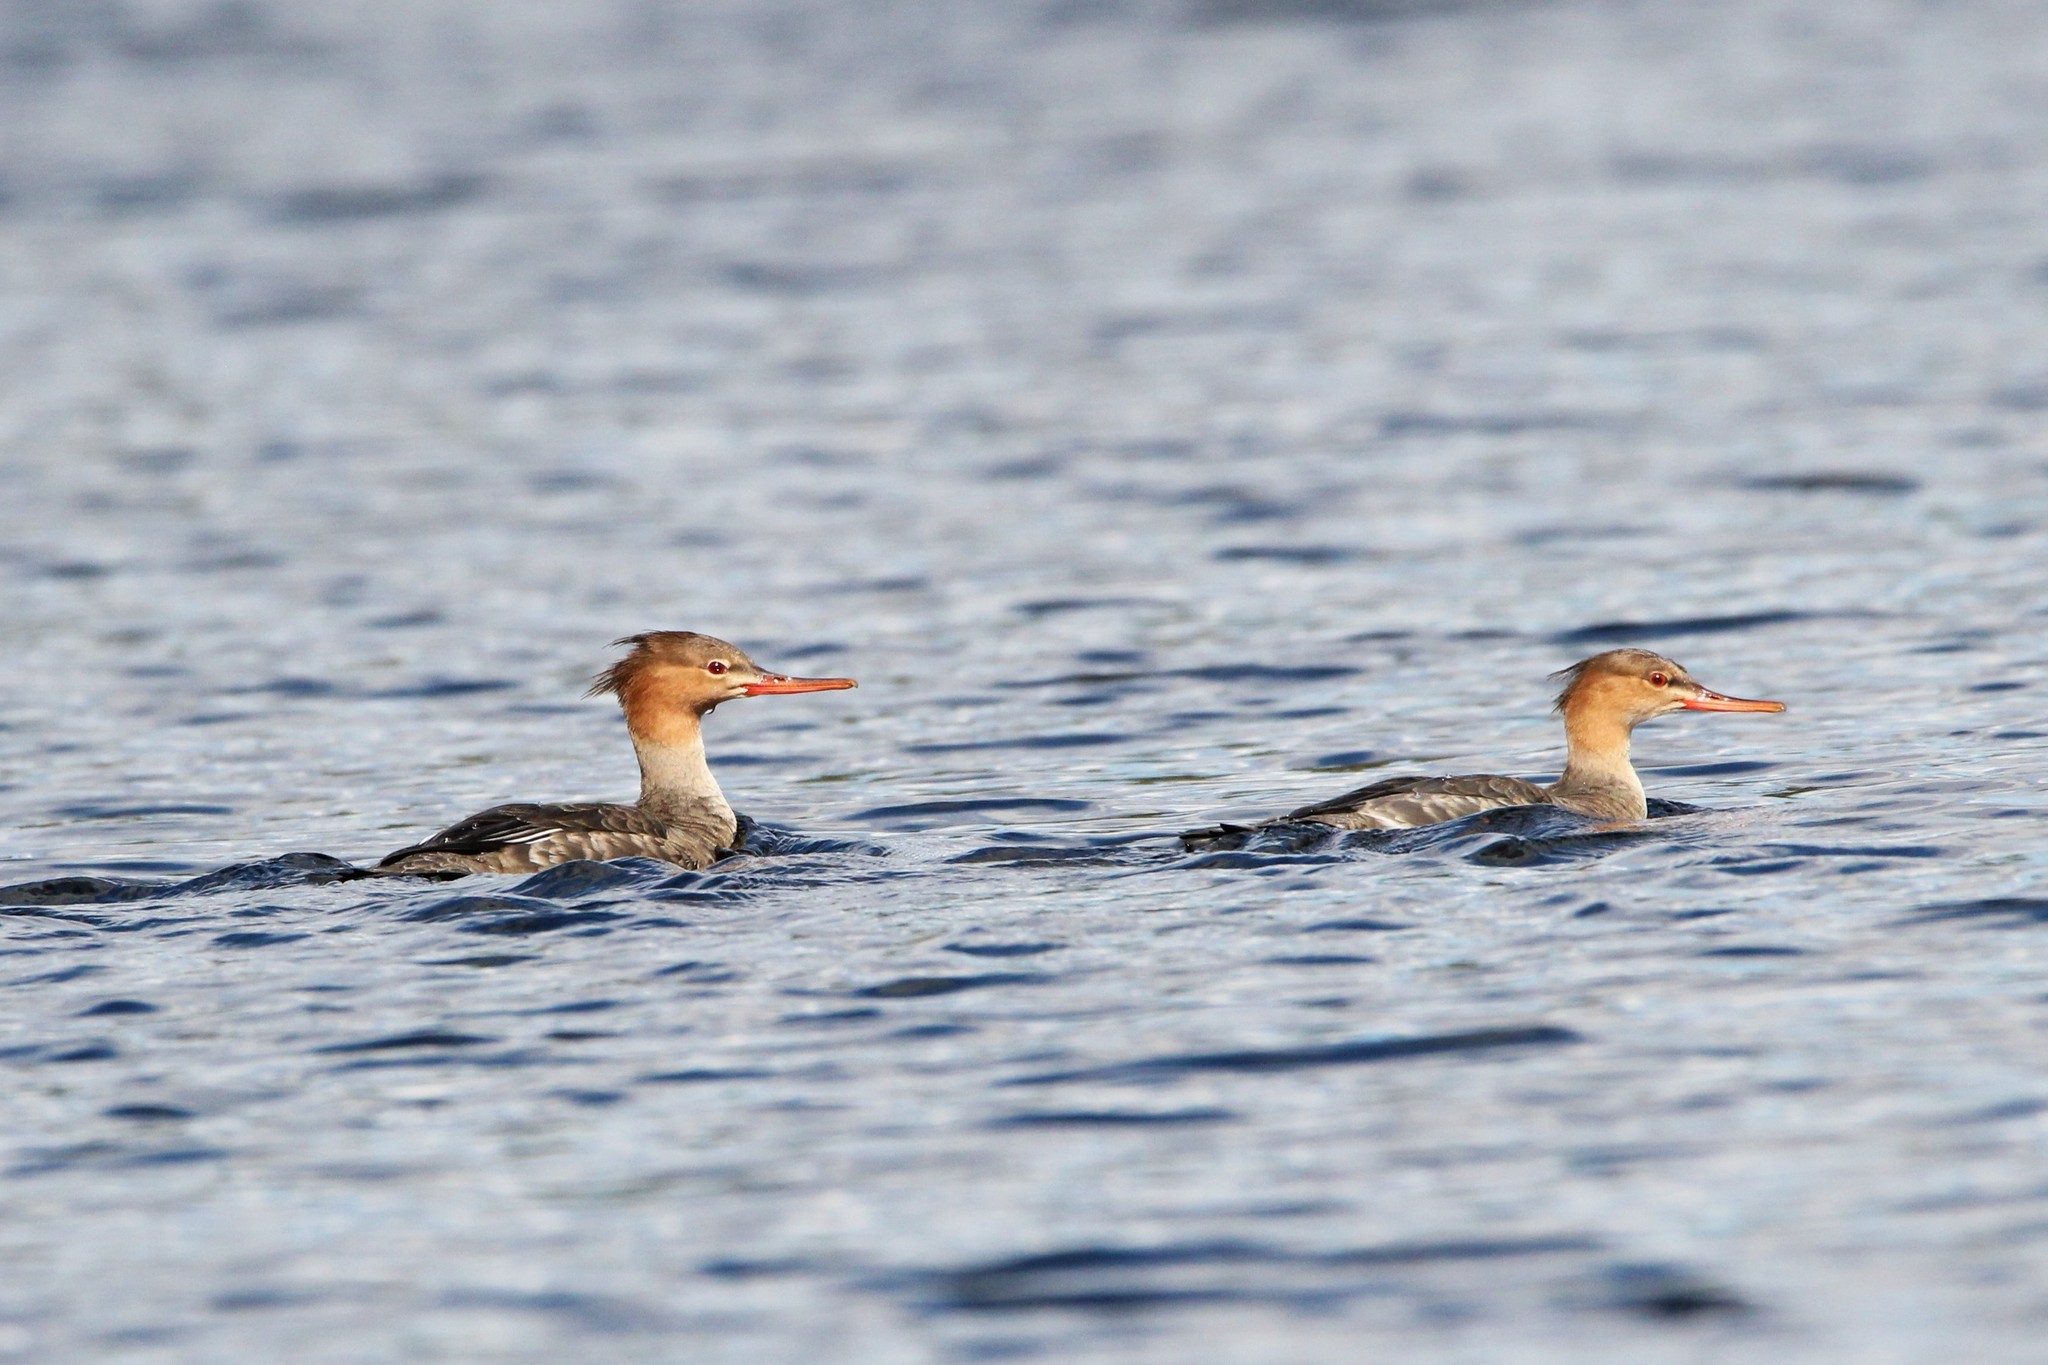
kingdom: Animalia
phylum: Chordata
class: Aves
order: Anseriformes
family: Anatidae
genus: Mergus
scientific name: Mergus serrator
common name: Red-breasted merganser
